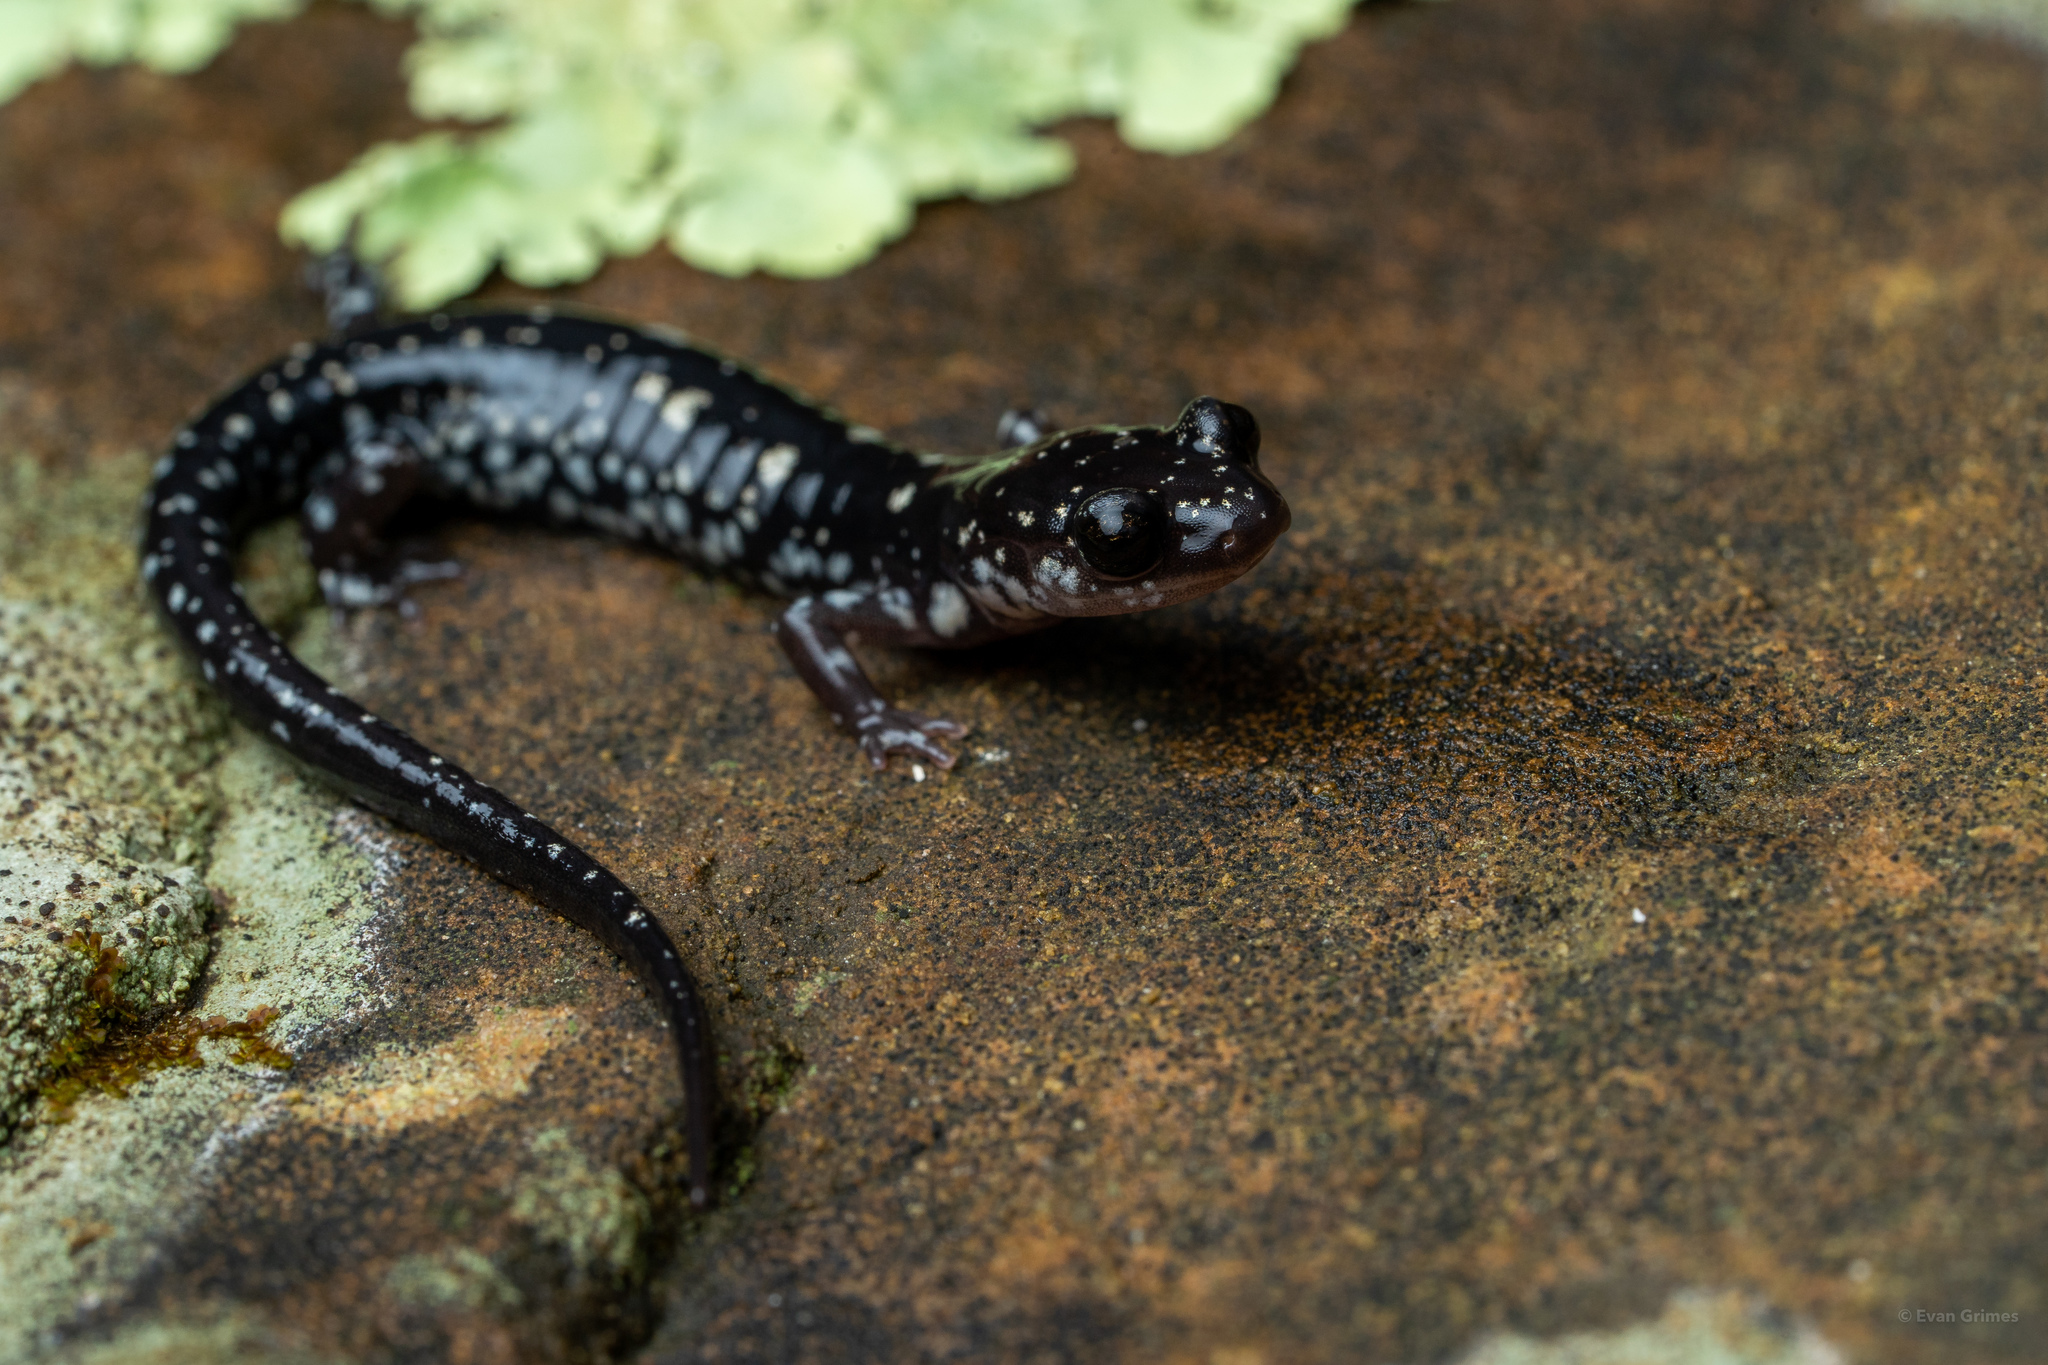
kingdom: Animalia
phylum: Chordata
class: Amphibia
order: Caudata
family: Plethodontidae
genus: Plethodon
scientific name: Plethodon fourchensis
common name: Fourche mountain salamander
